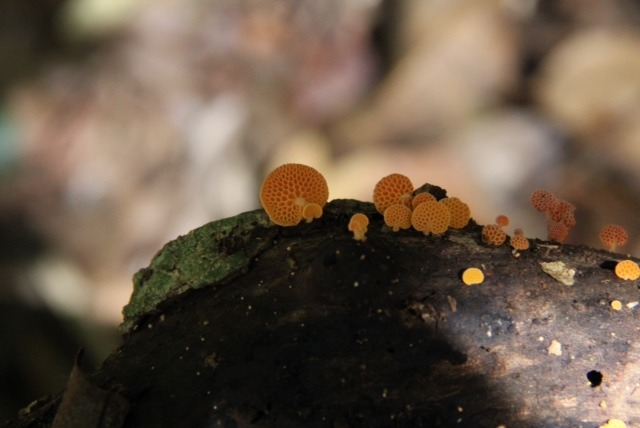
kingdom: Fungi
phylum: Basidiomycota
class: Agaricomycetes
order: Agaricales
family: Mycenaceae
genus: Favolaschia
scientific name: Favolaschia claudopus
